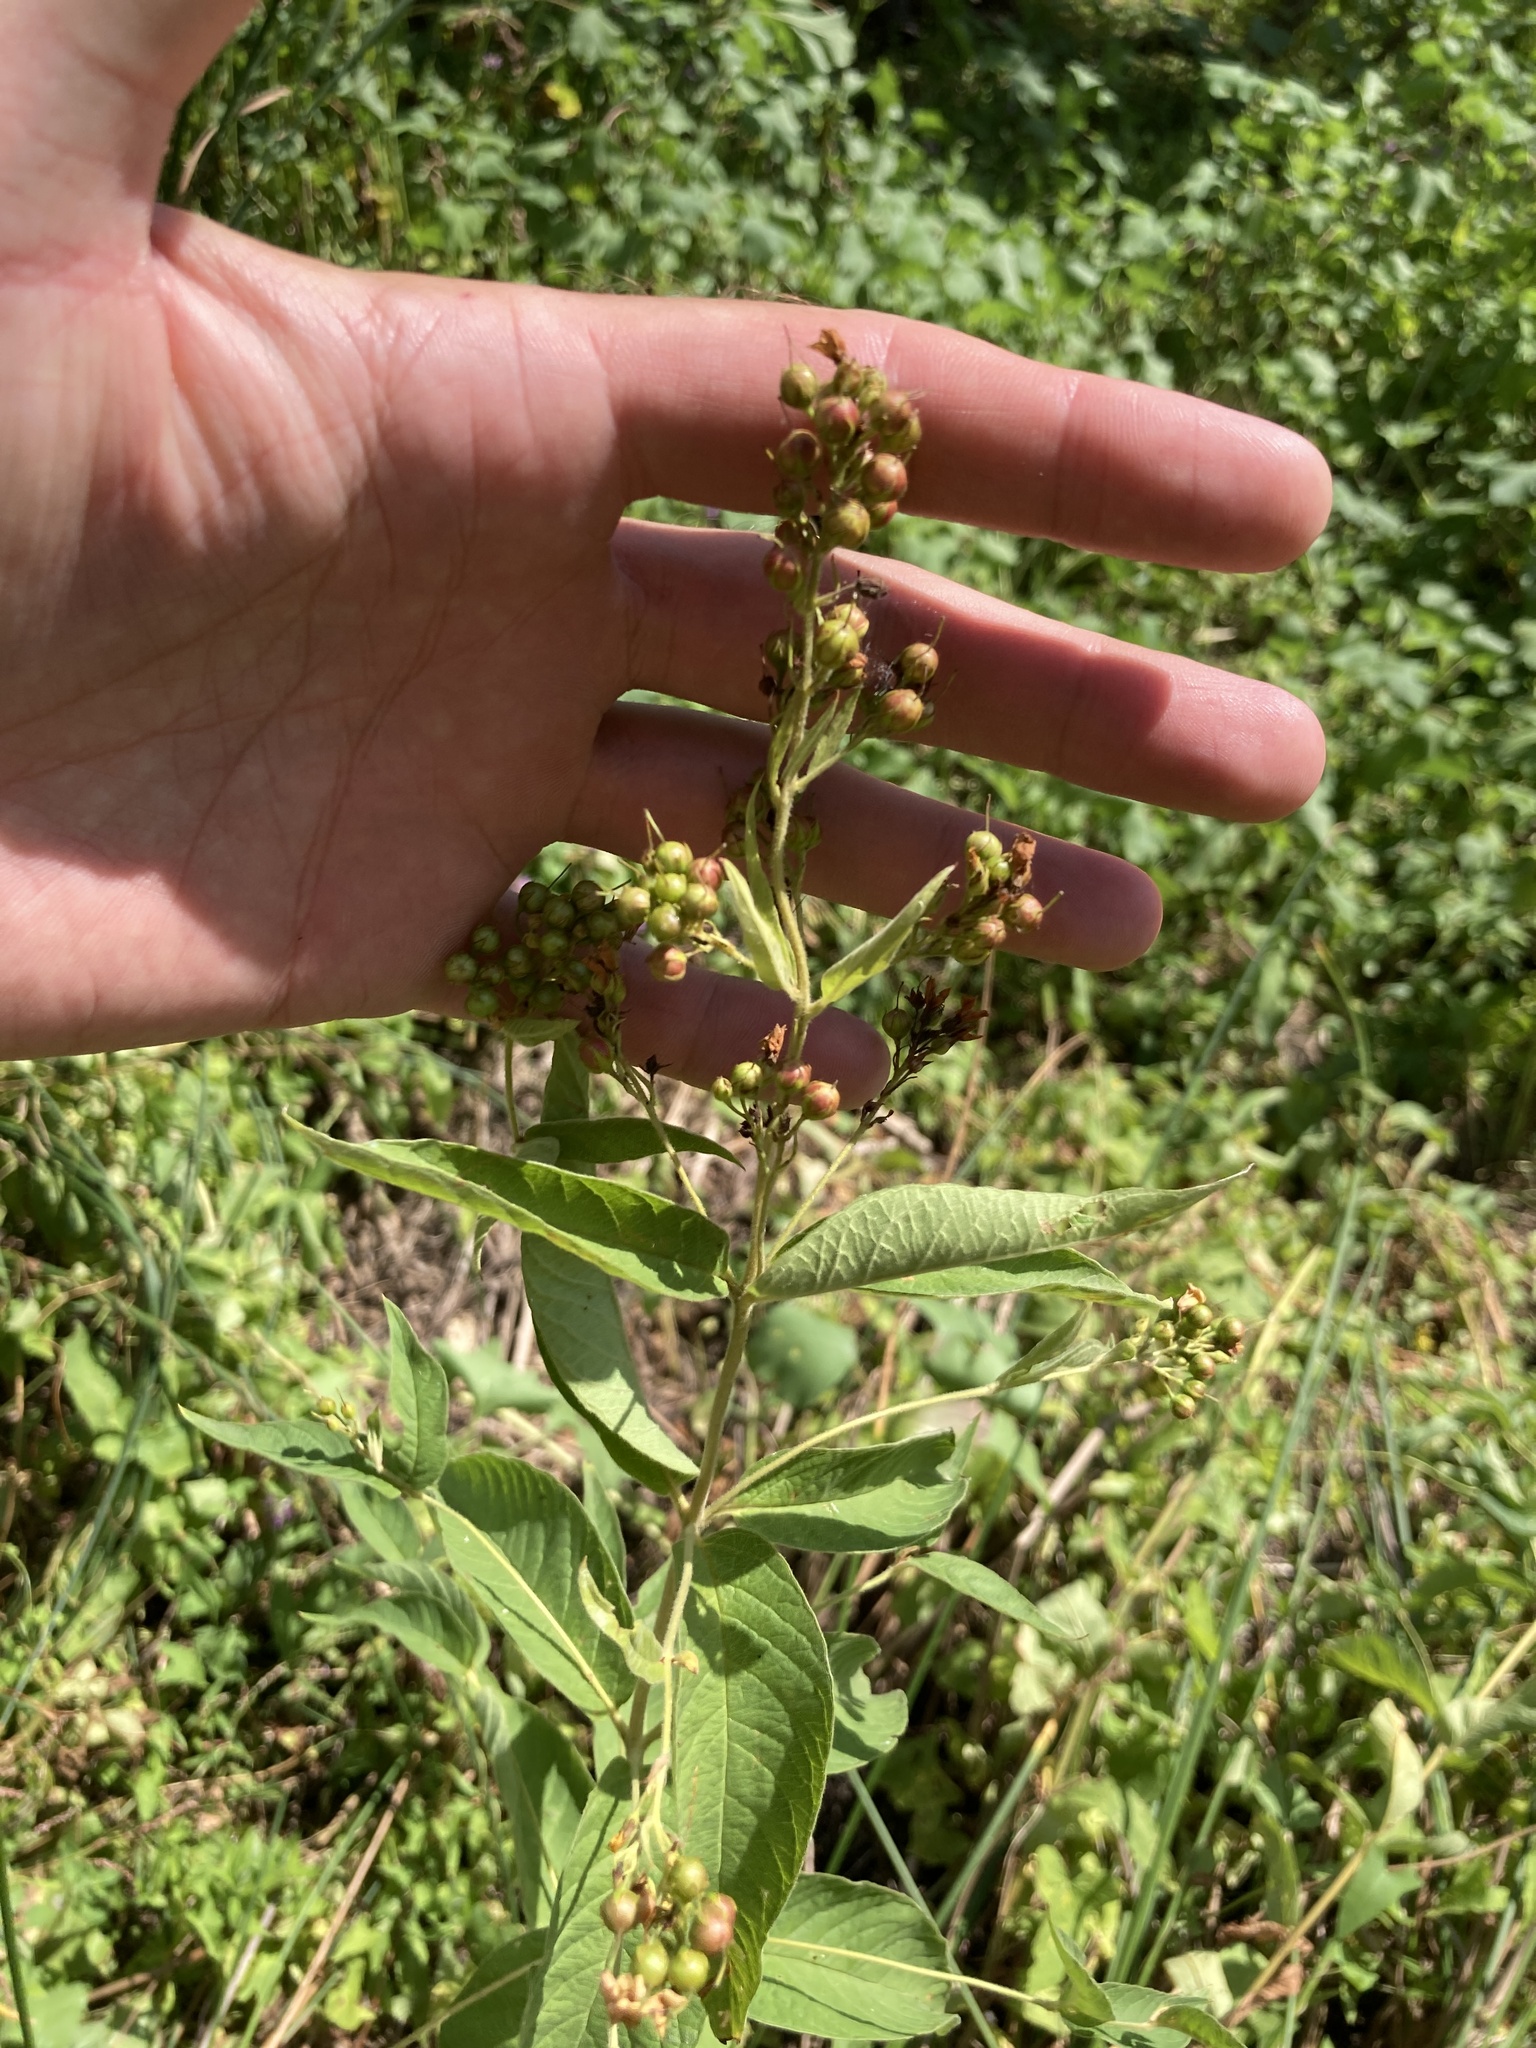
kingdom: Plantae
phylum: Tracheophyta
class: Magnoliopsida
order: Ericales
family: Primulaceae
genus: Lysimachia
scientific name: Lysimachia vulgaris
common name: Yellow loosestrife
